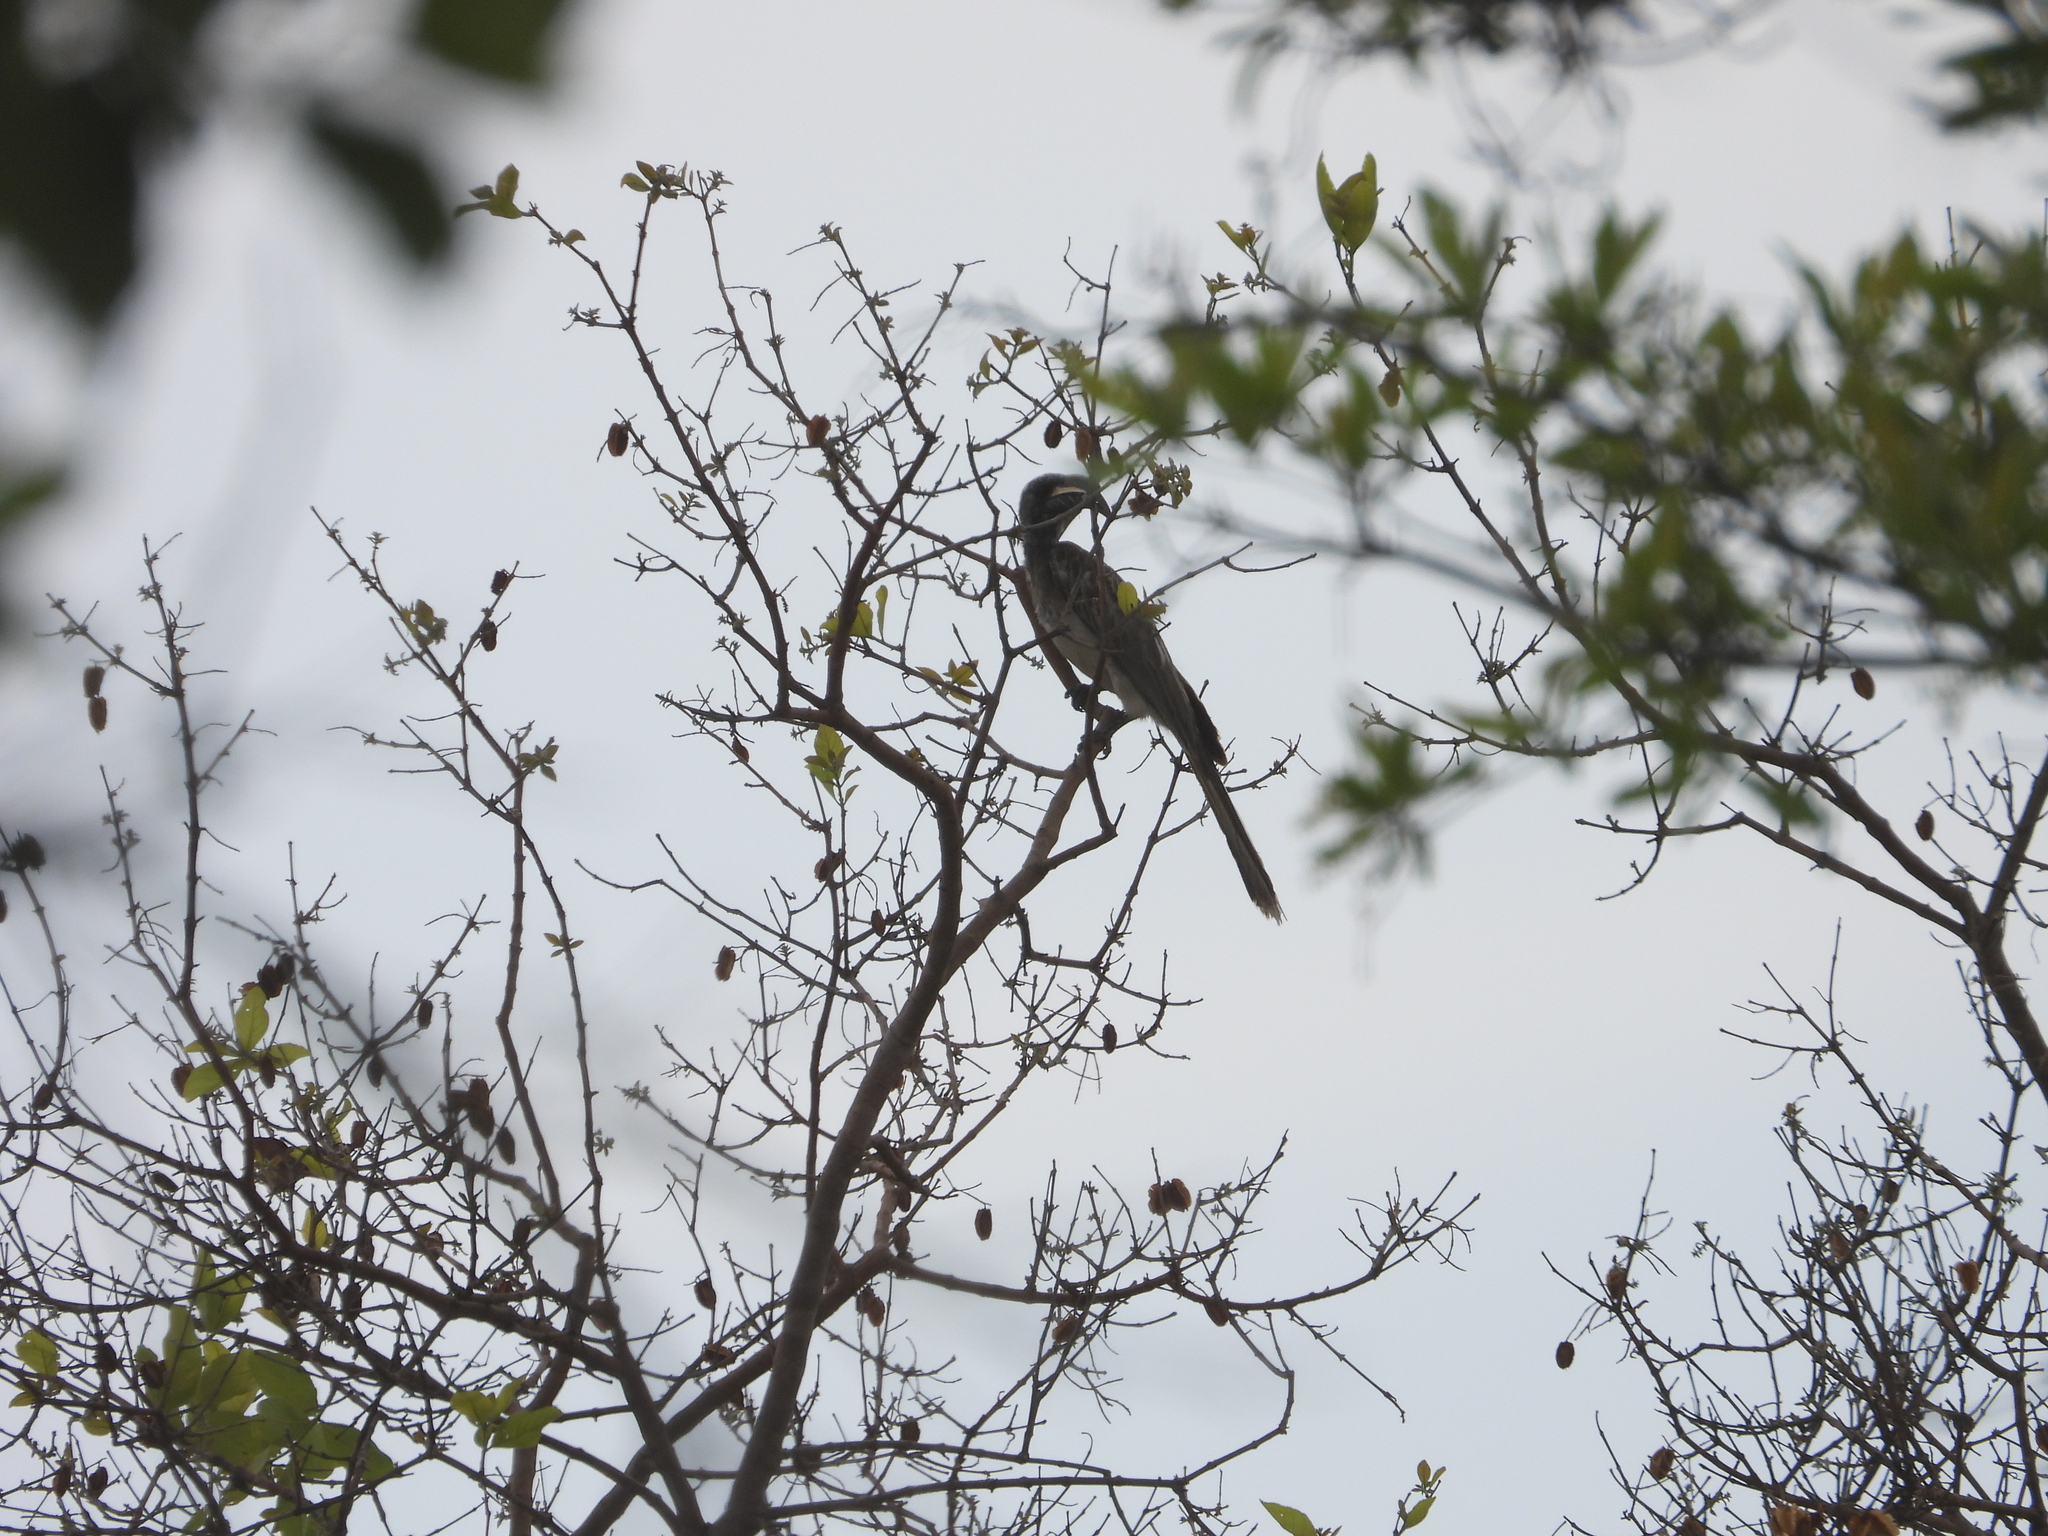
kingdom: Animalia
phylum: Chordata
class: Aves
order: Bucerotiformes
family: Bucerotidae
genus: Lophoceros
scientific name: Lophoceros nasutus
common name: African grey hornbill
